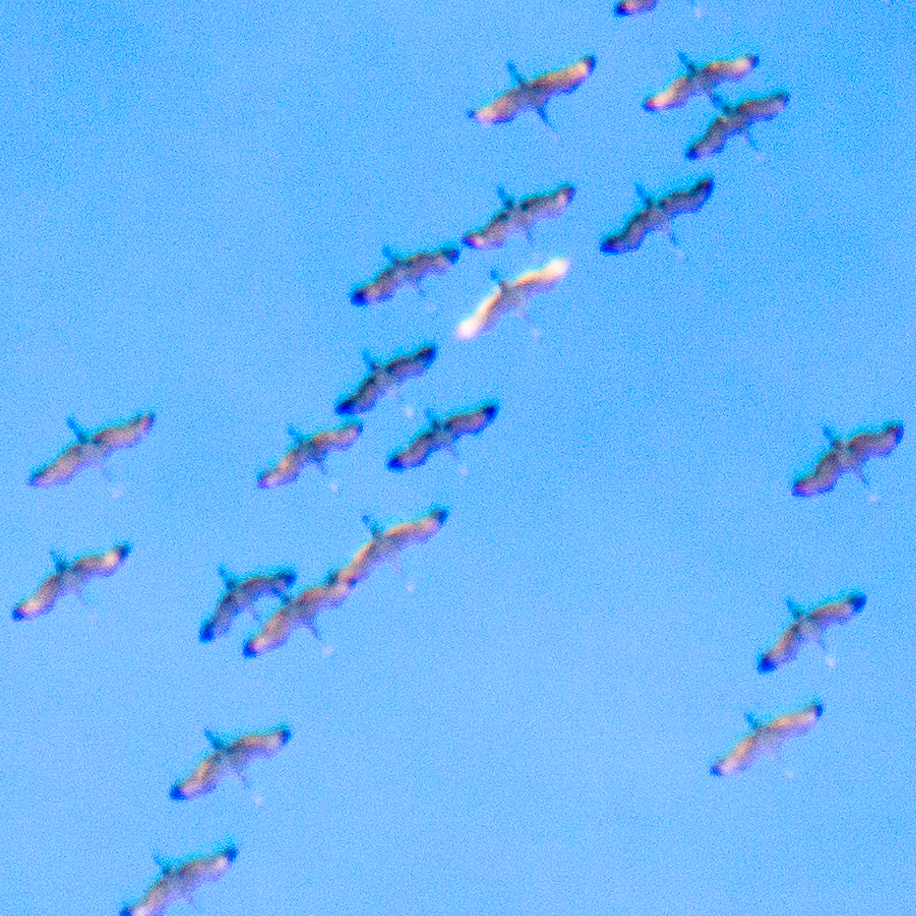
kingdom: Animalia
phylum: Chordata
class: Aves
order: Gruiformes
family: Gruidae
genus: Grus
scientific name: Grus canadensis
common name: Sandhill crane
